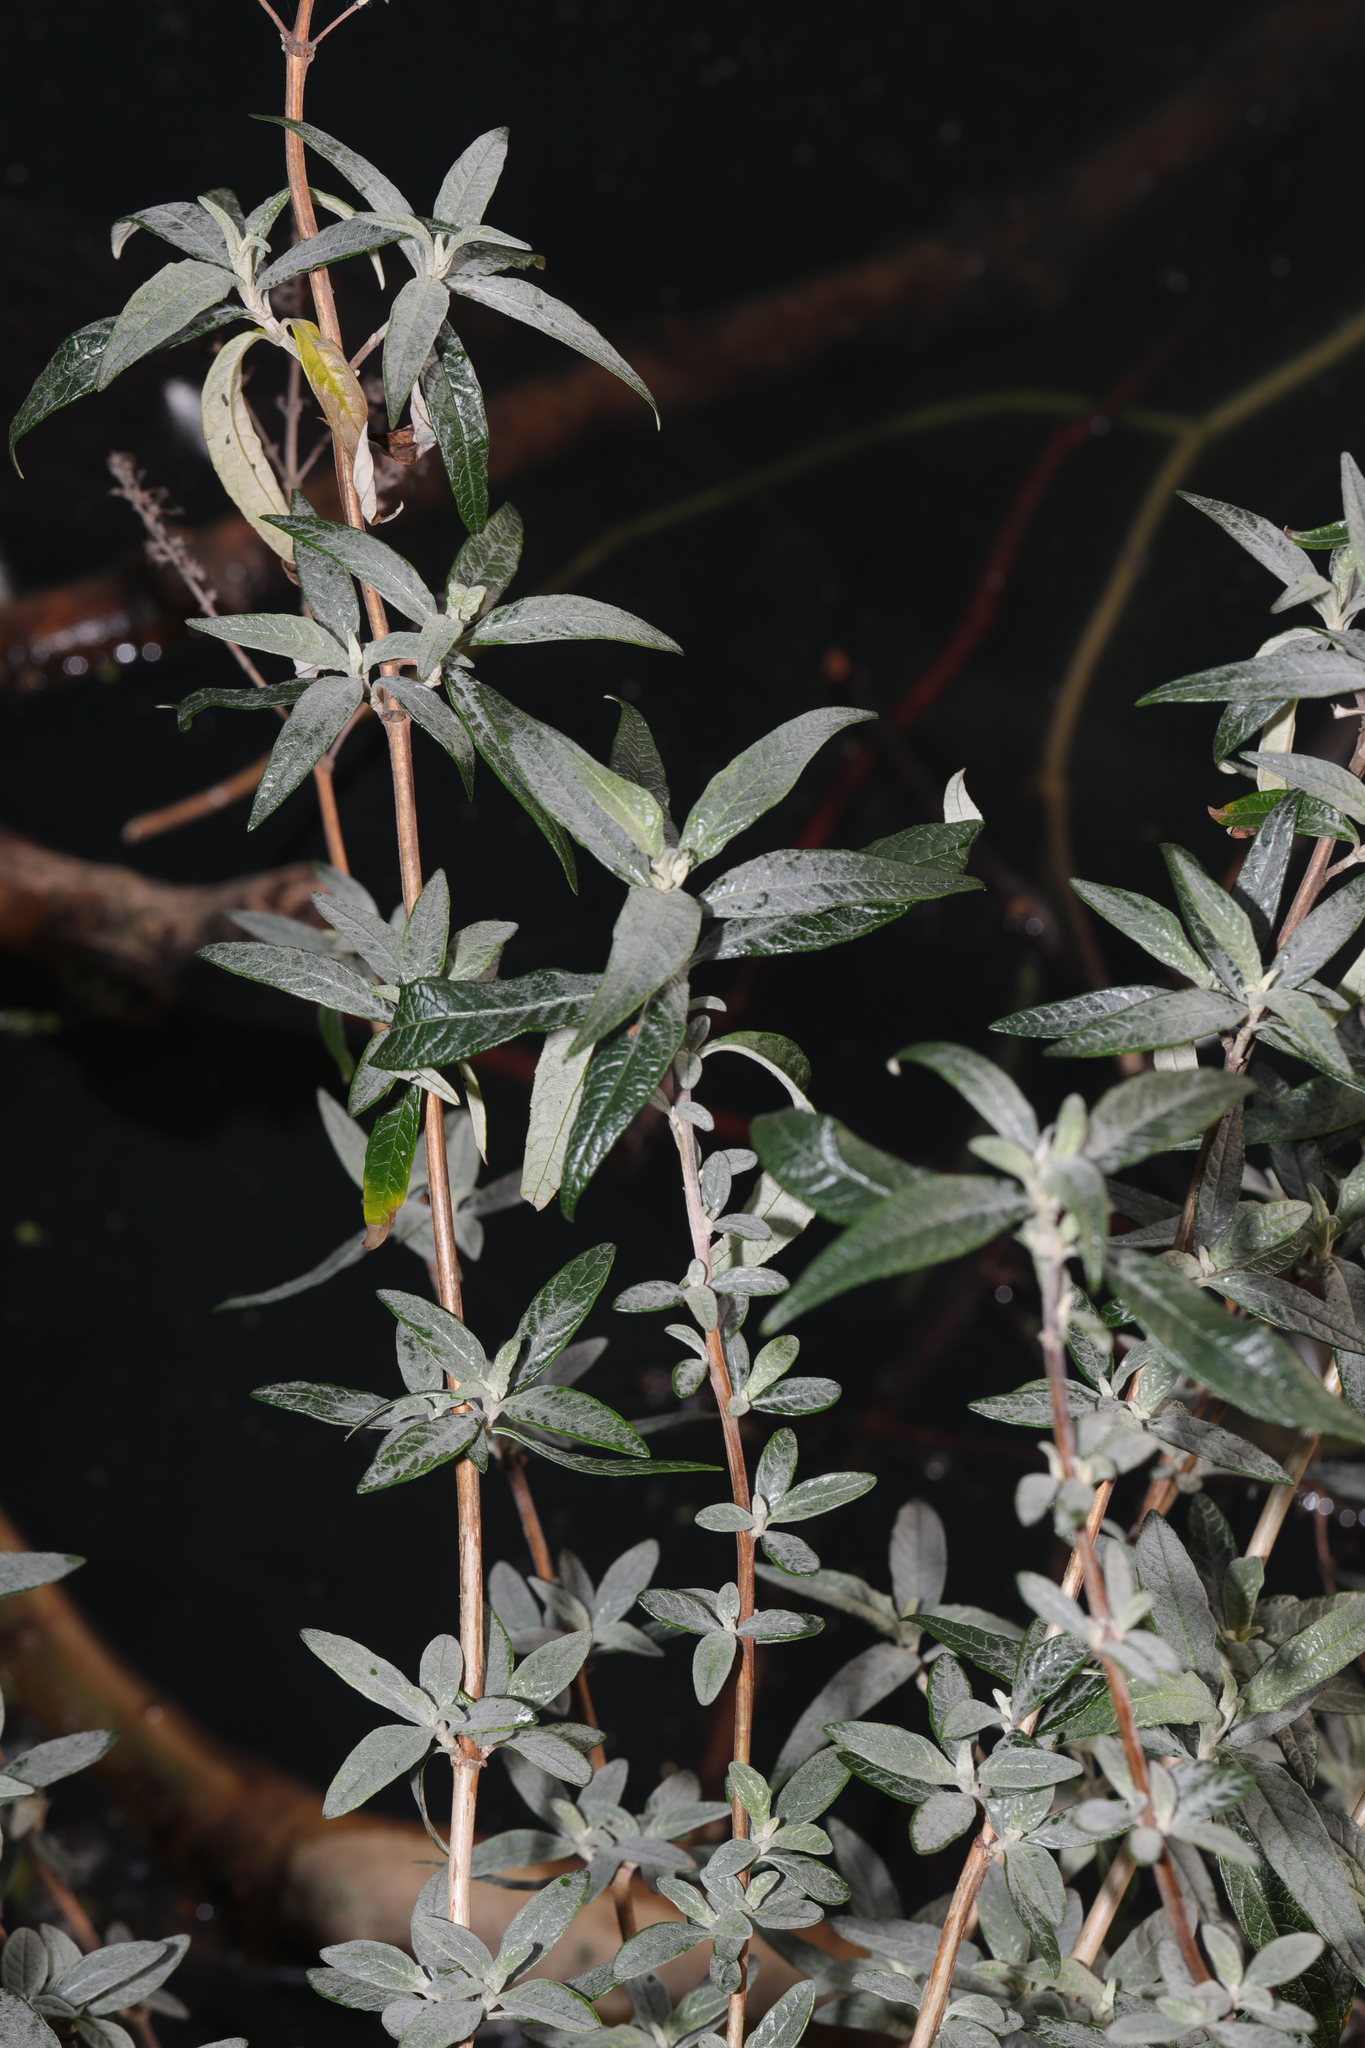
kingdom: Plantae
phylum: Tracheophyta
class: Magnoliopsida
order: Lamiales
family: Scrophulariaceae
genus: Buddleja
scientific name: Buddleja davidii
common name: Butterfly-bush
